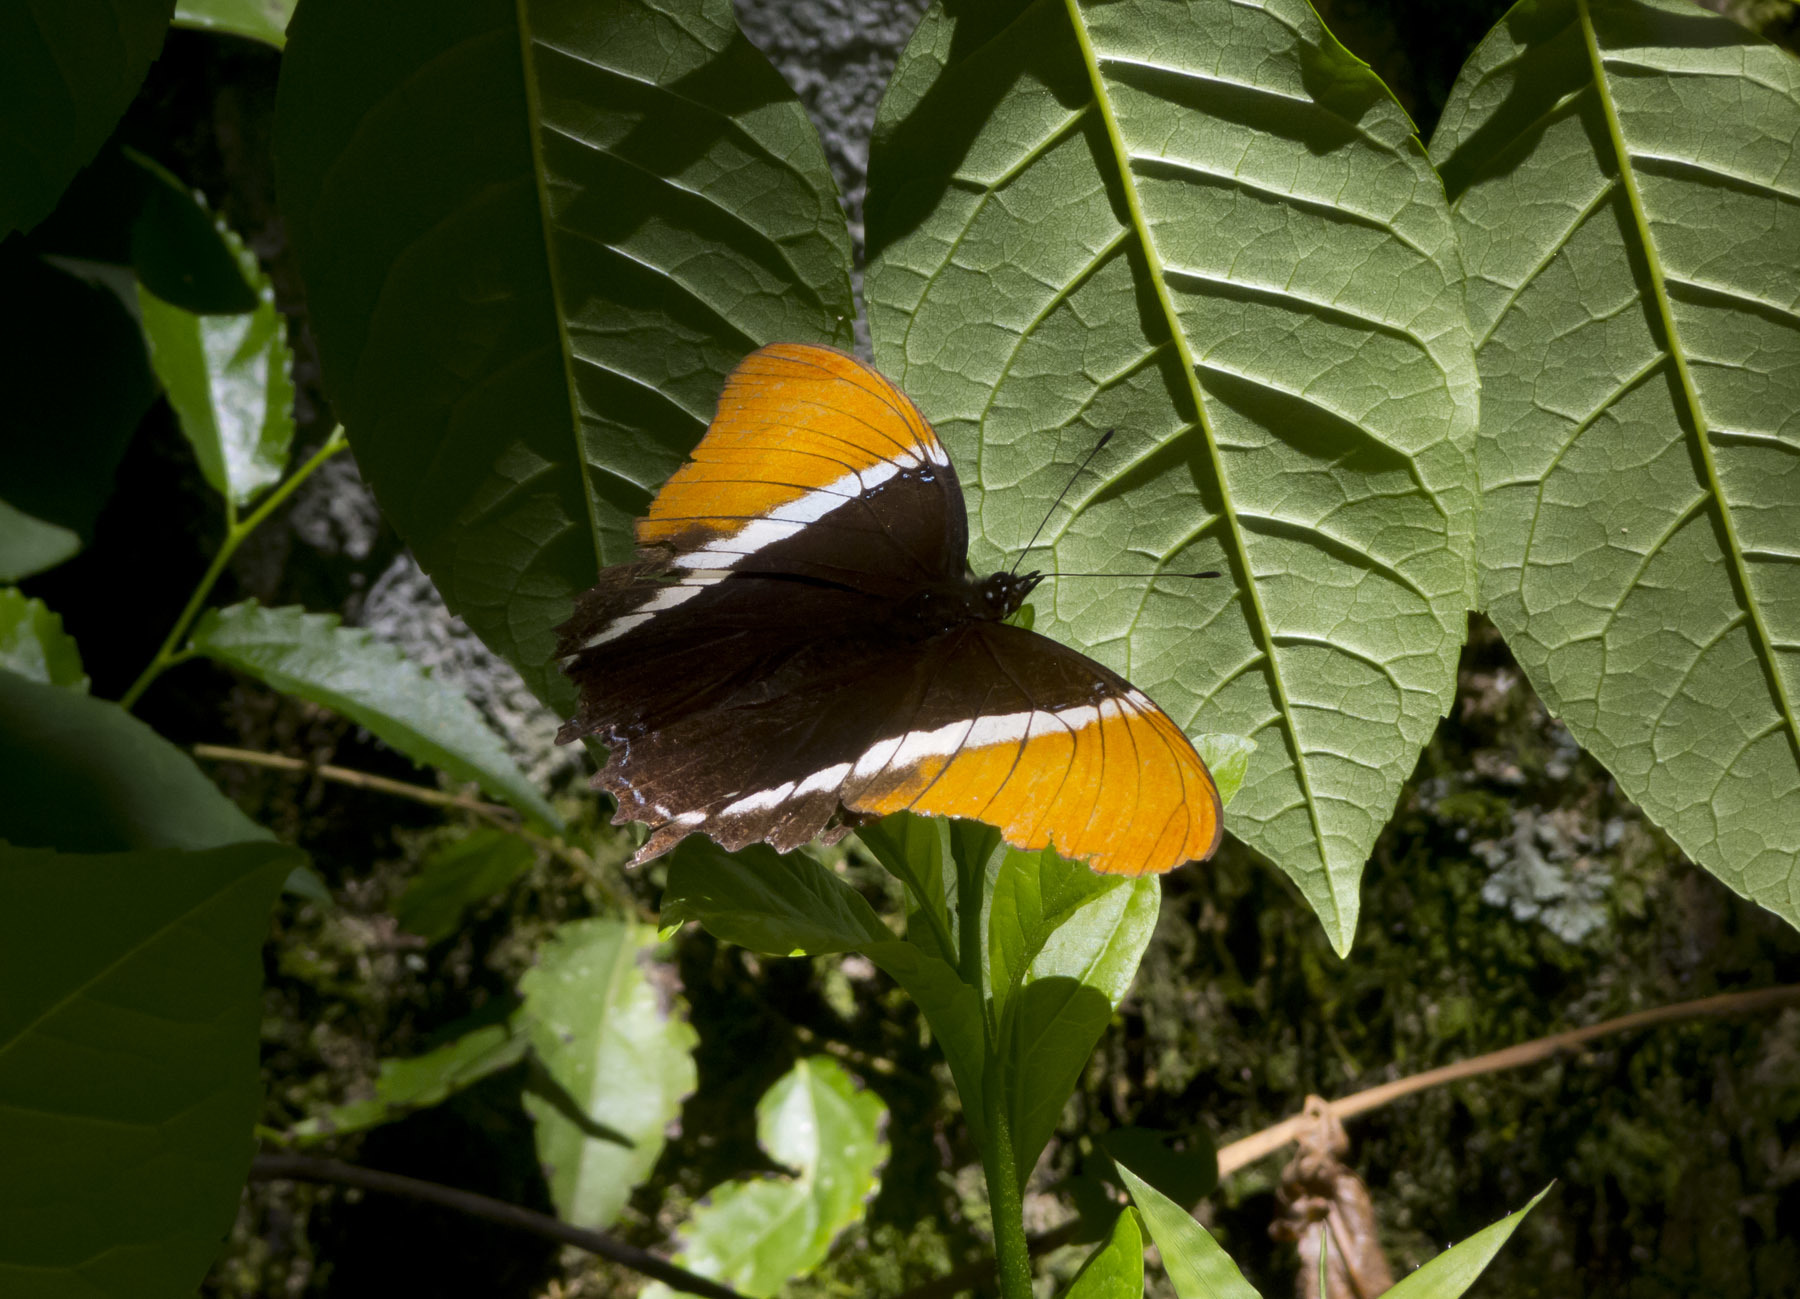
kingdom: Animalia
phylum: Arthropoda
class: Insecta
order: Lepidoptera
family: Nymphalidae
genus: Siproeta
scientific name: Siproeta epaphus
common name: Rusty-tipped page
